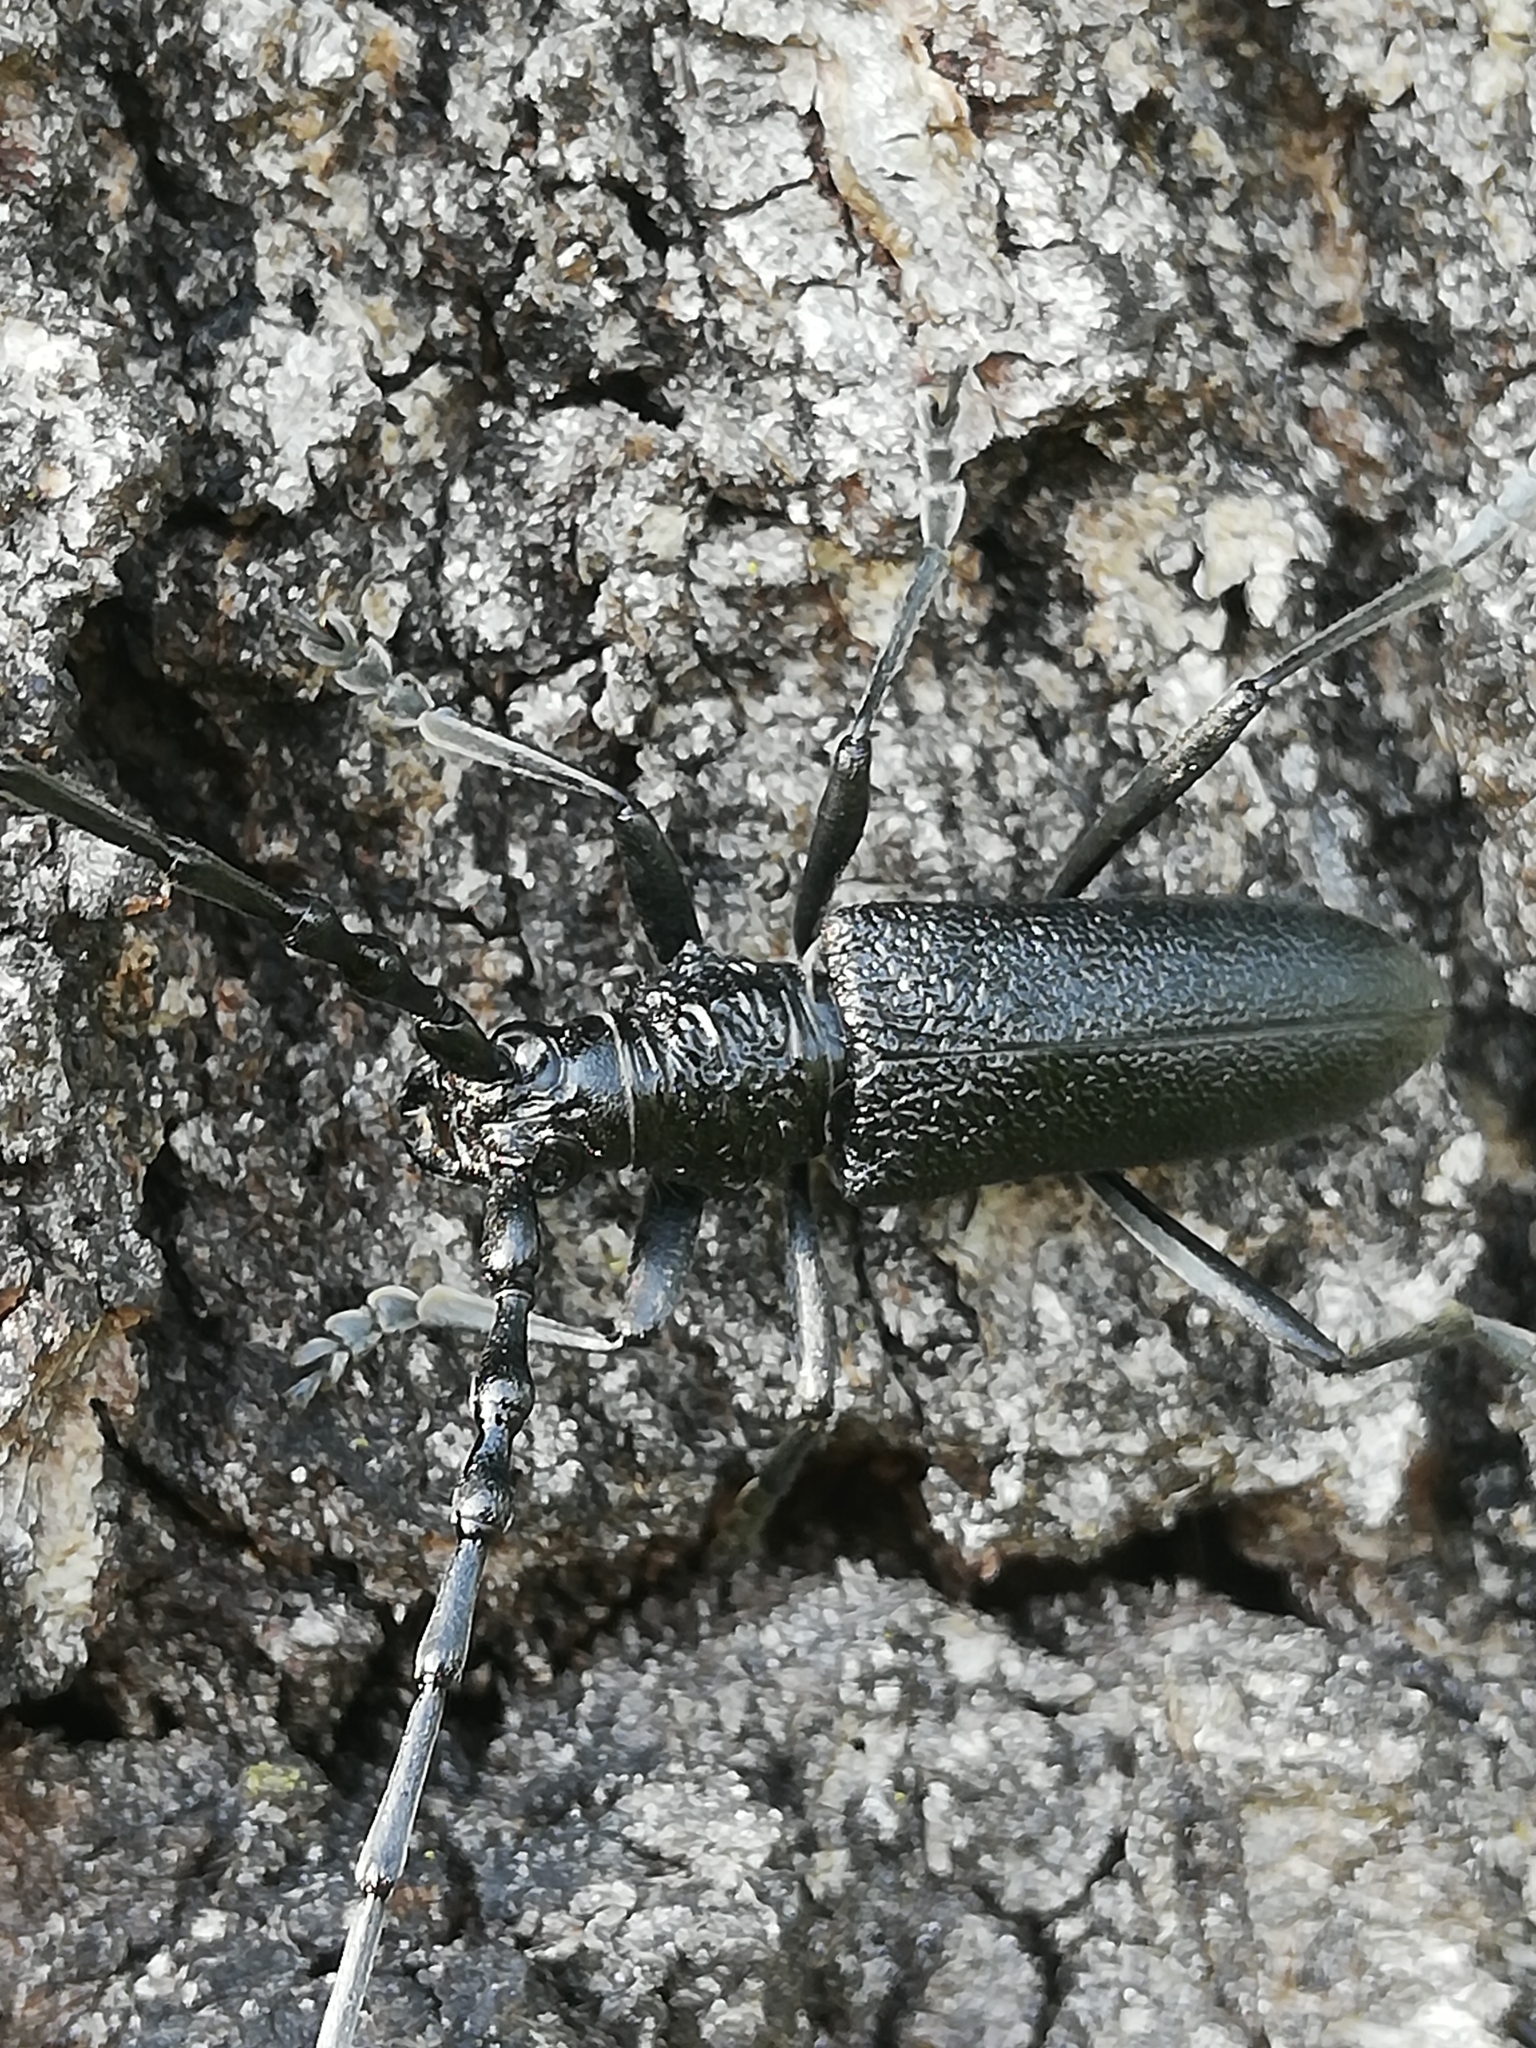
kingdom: Animalia
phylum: Arthropoda
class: Insecta
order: Coleoptera
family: Cerambycidae
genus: Cerambyx
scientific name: Cerambyx scopolii
